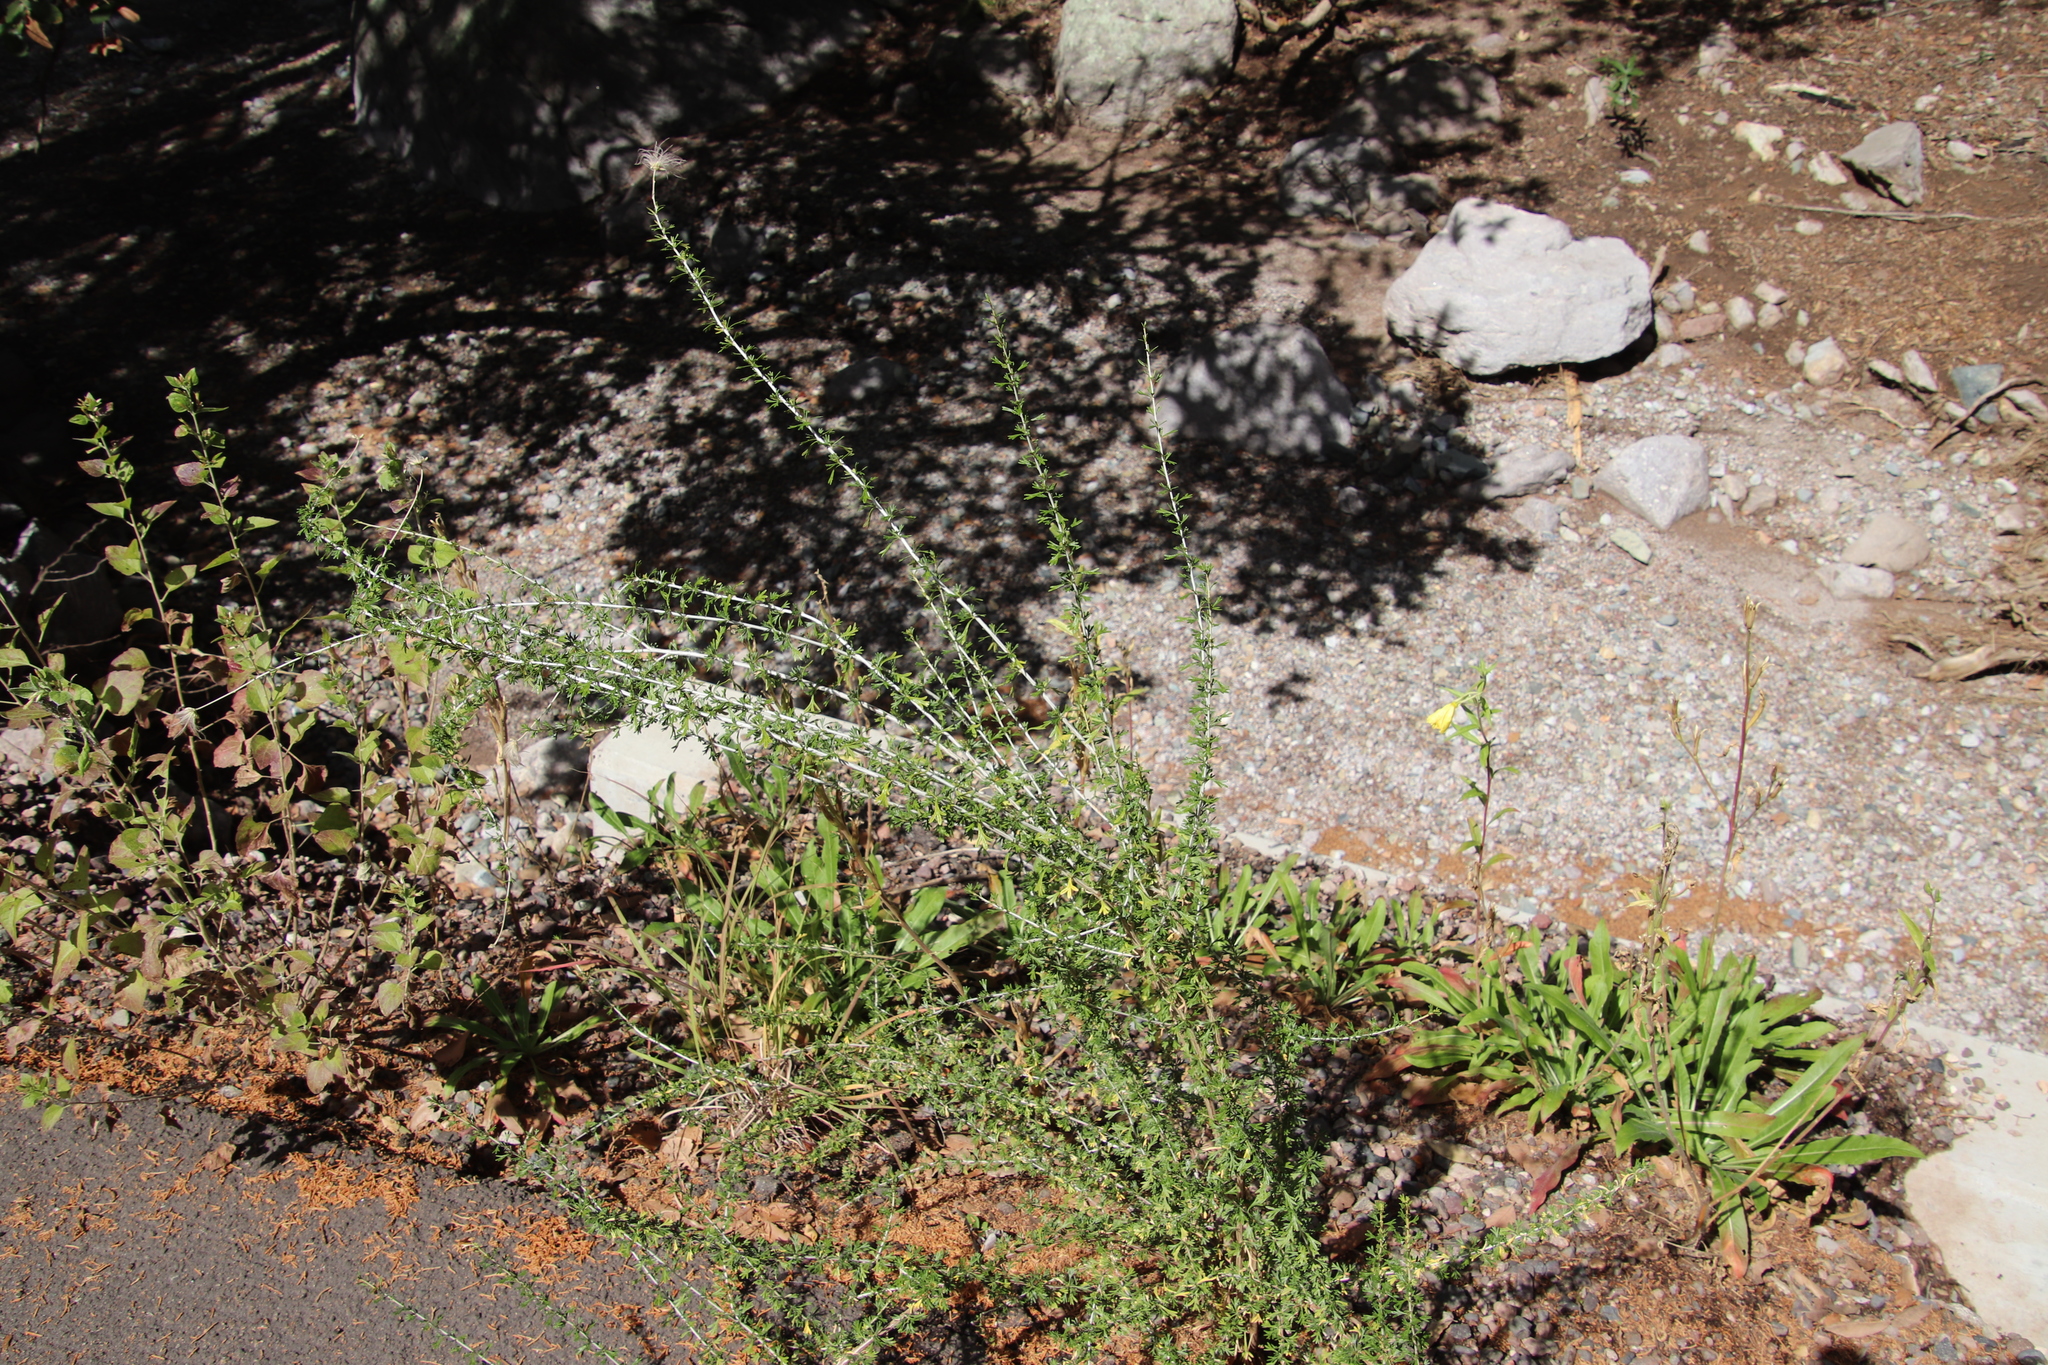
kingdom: Plantae
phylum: Tracheophyta
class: Magnoliopsida
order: Rosales
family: Rosaceae
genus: Fallugia
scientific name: Fallugia paradoxa
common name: Apache-plume
